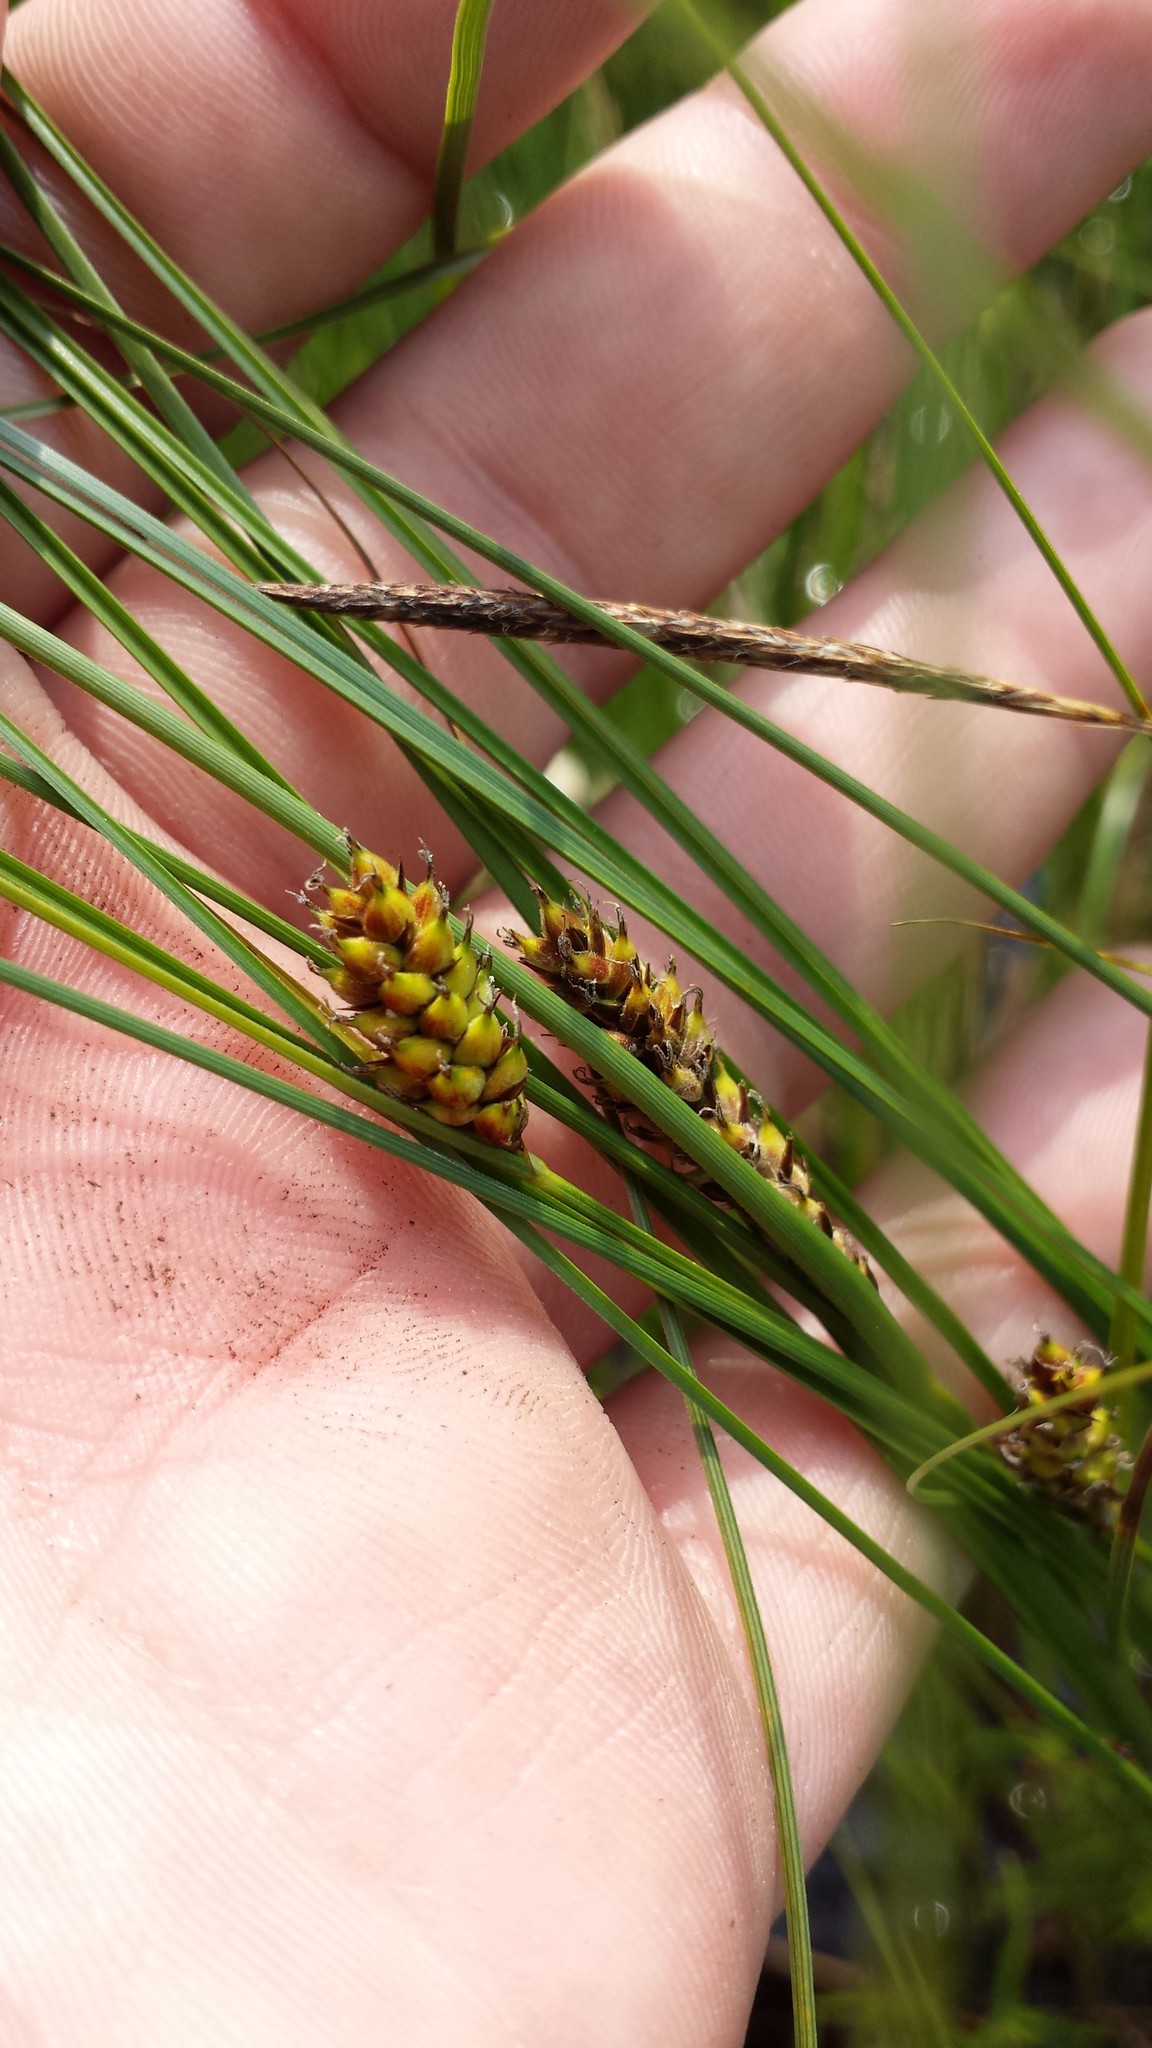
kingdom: Plantae
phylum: Tracheophyta
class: Liliopsida
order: Poales
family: Cyperaceae
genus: Carex
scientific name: Carex lasiocarpa
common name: Slender sedge
